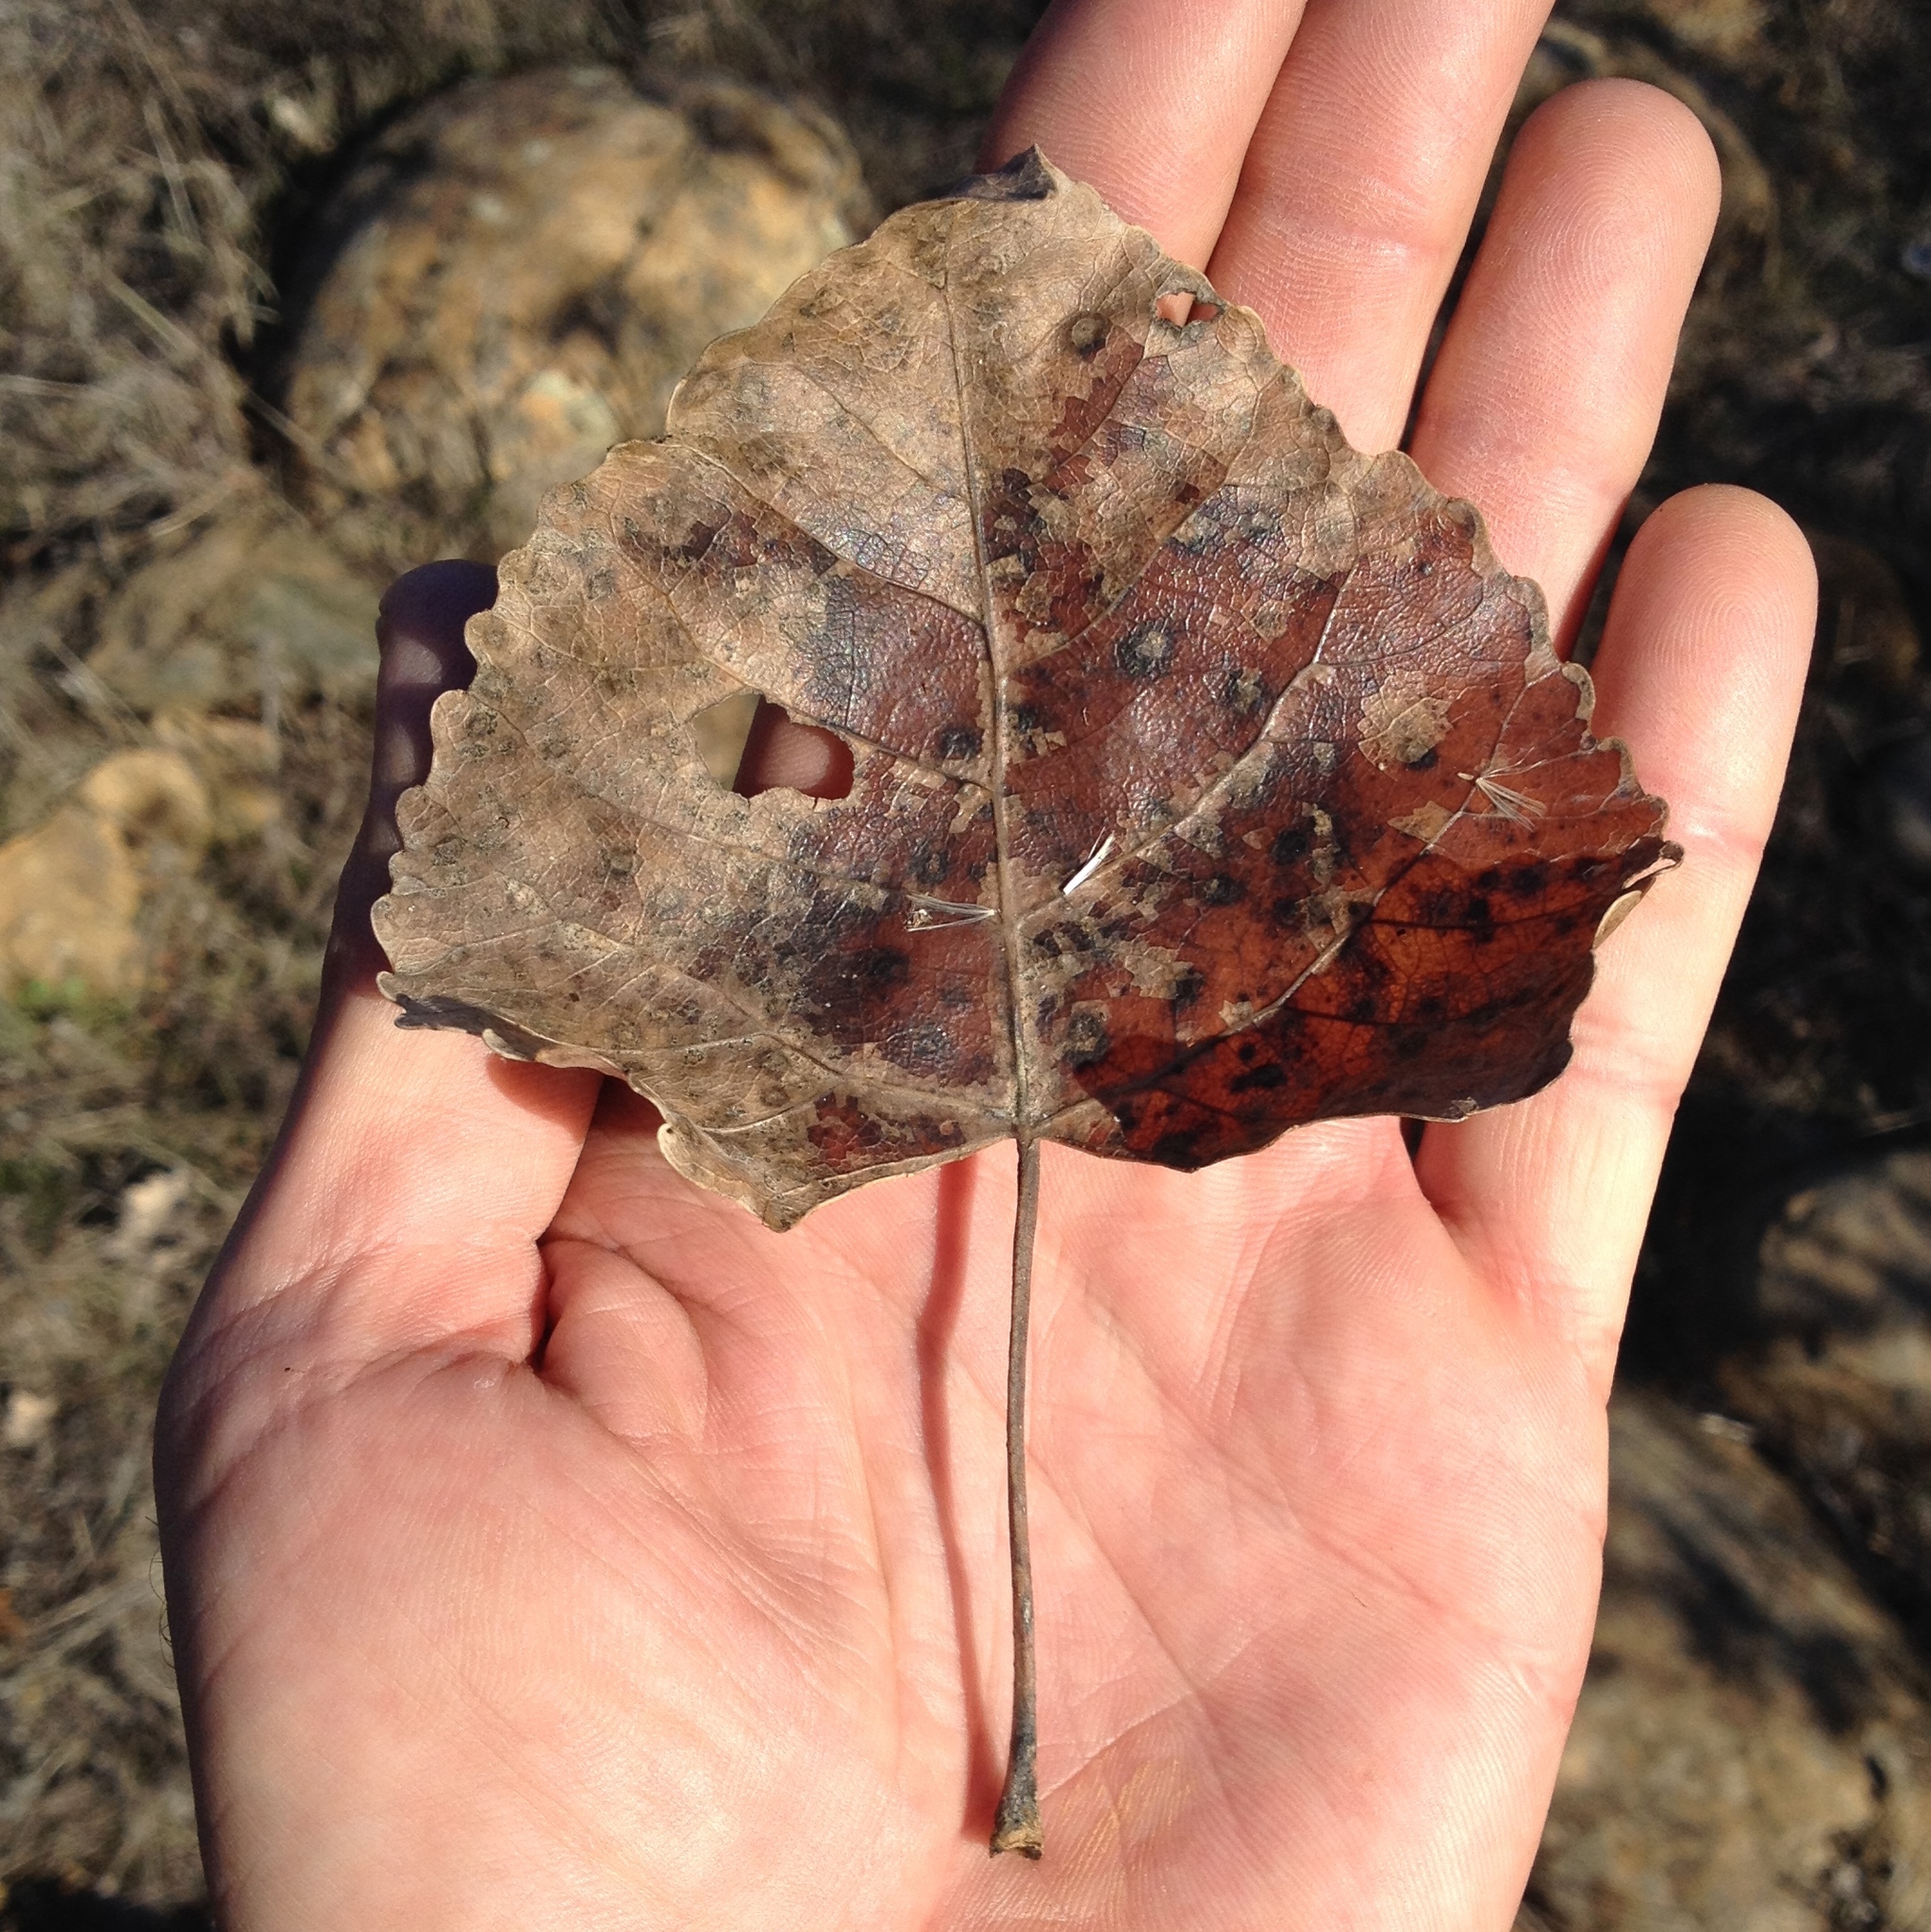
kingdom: Plantae
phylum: Tracheophyta
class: Magnoliopsida
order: Malpighiales
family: Salicaceae
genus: Populus
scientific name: Populus fremontii
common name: Fremont's cottonwood
